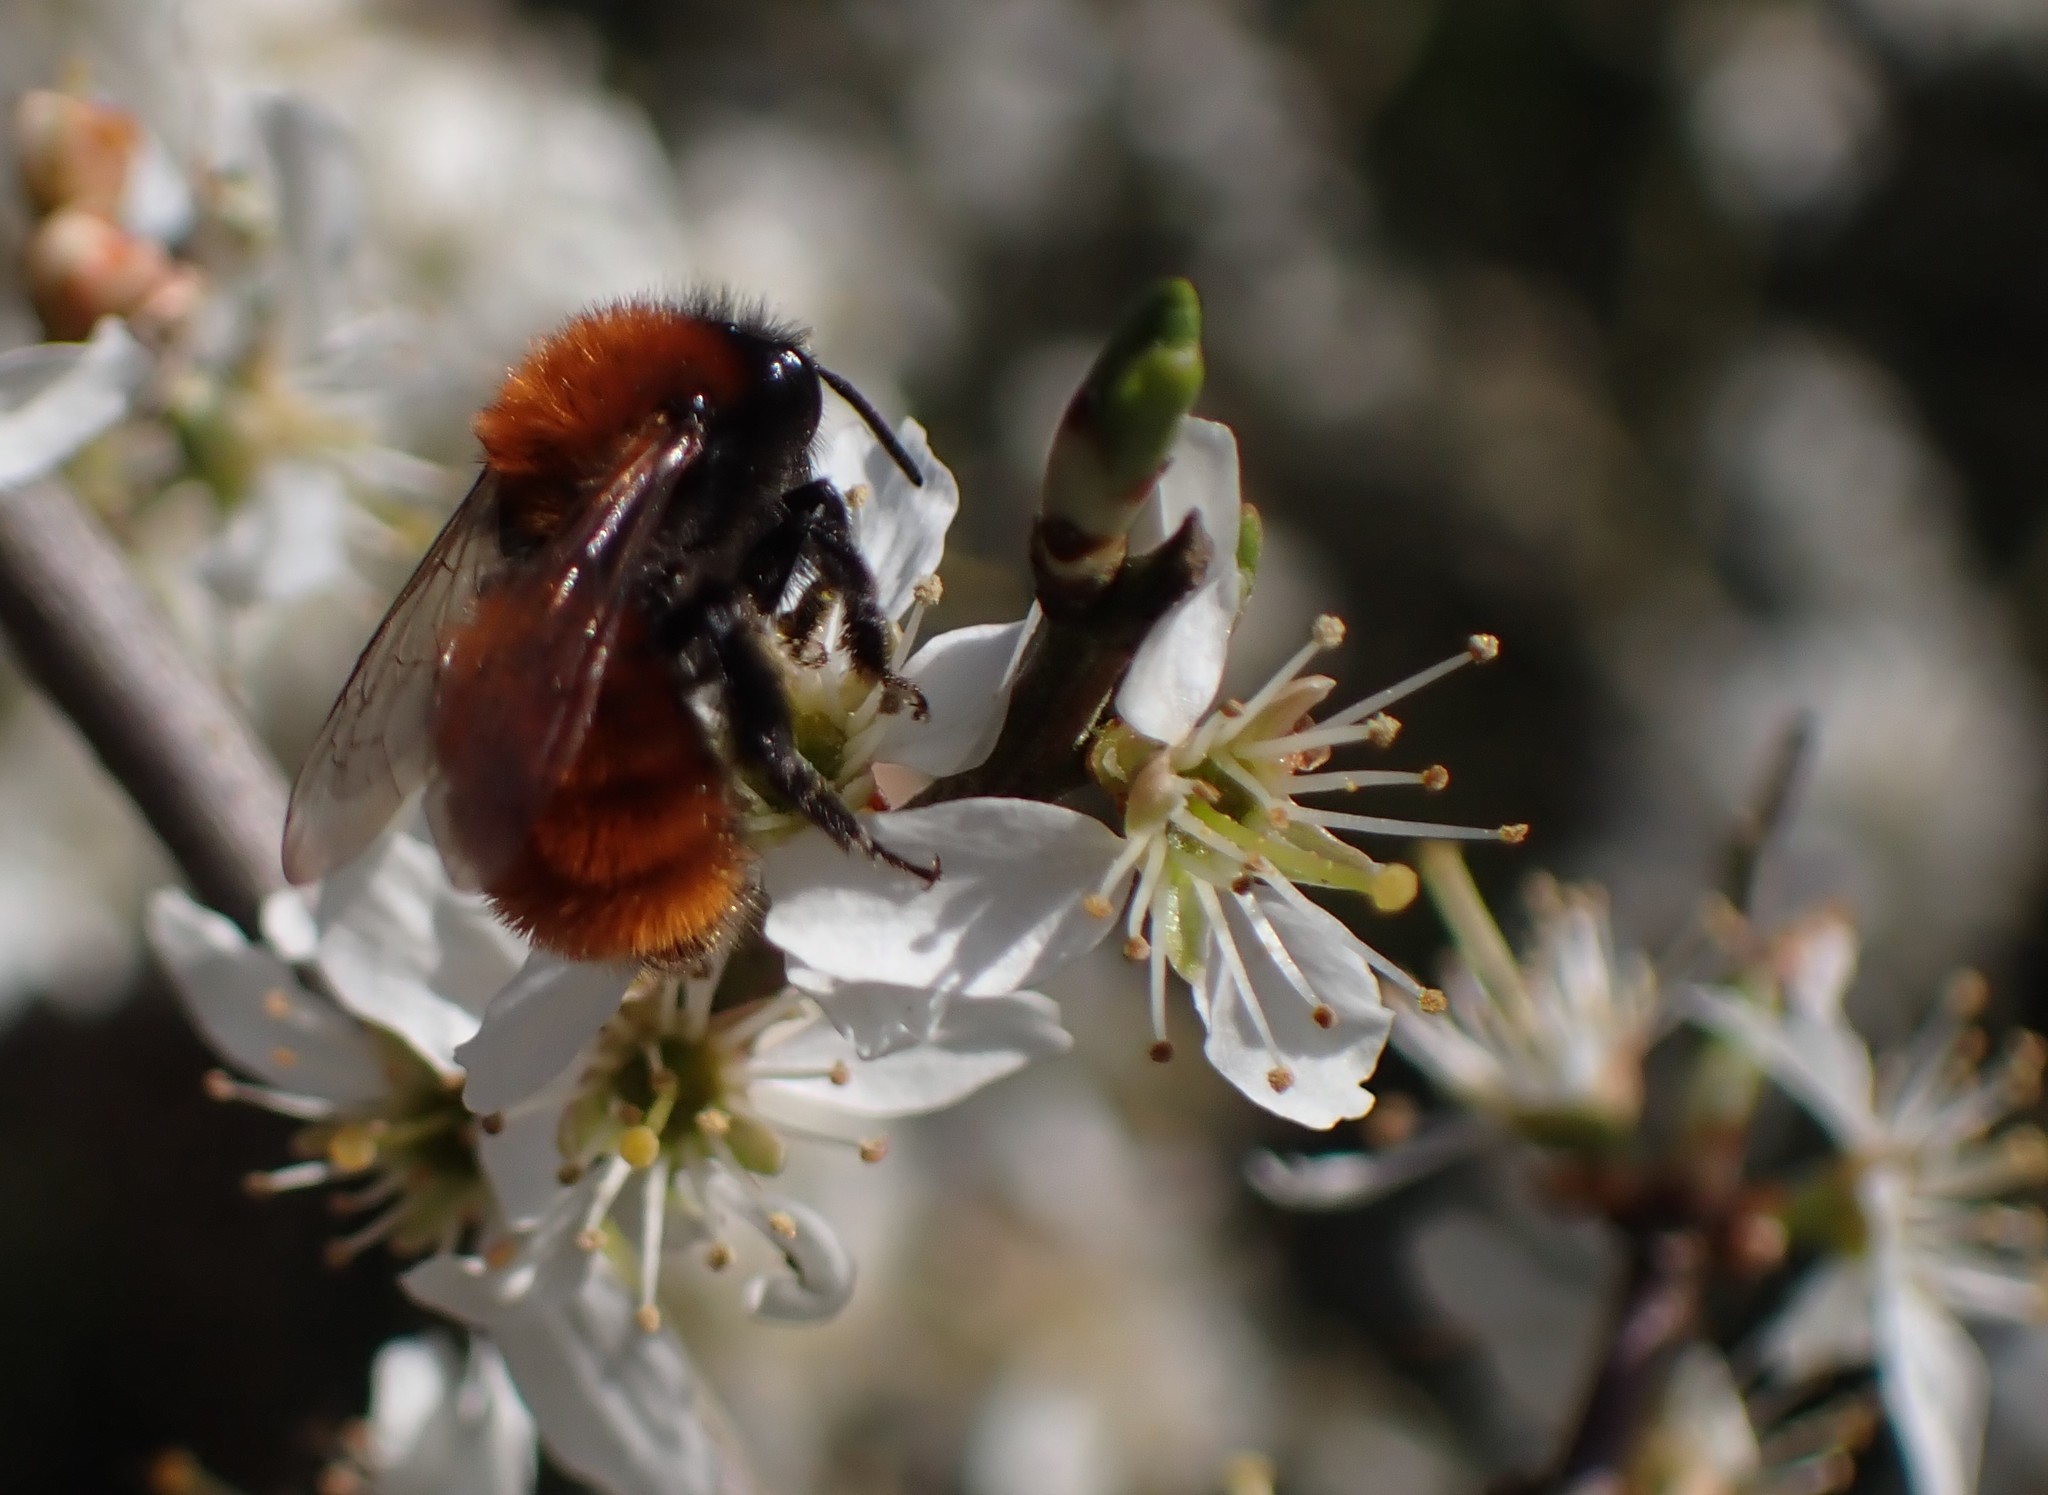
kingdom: Animalia
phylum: Arthropoda
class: Insecta
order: Hymenoptera
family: Andrenidae
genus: Andrena
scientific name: Andrena fulva
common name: Tawny mining bee
